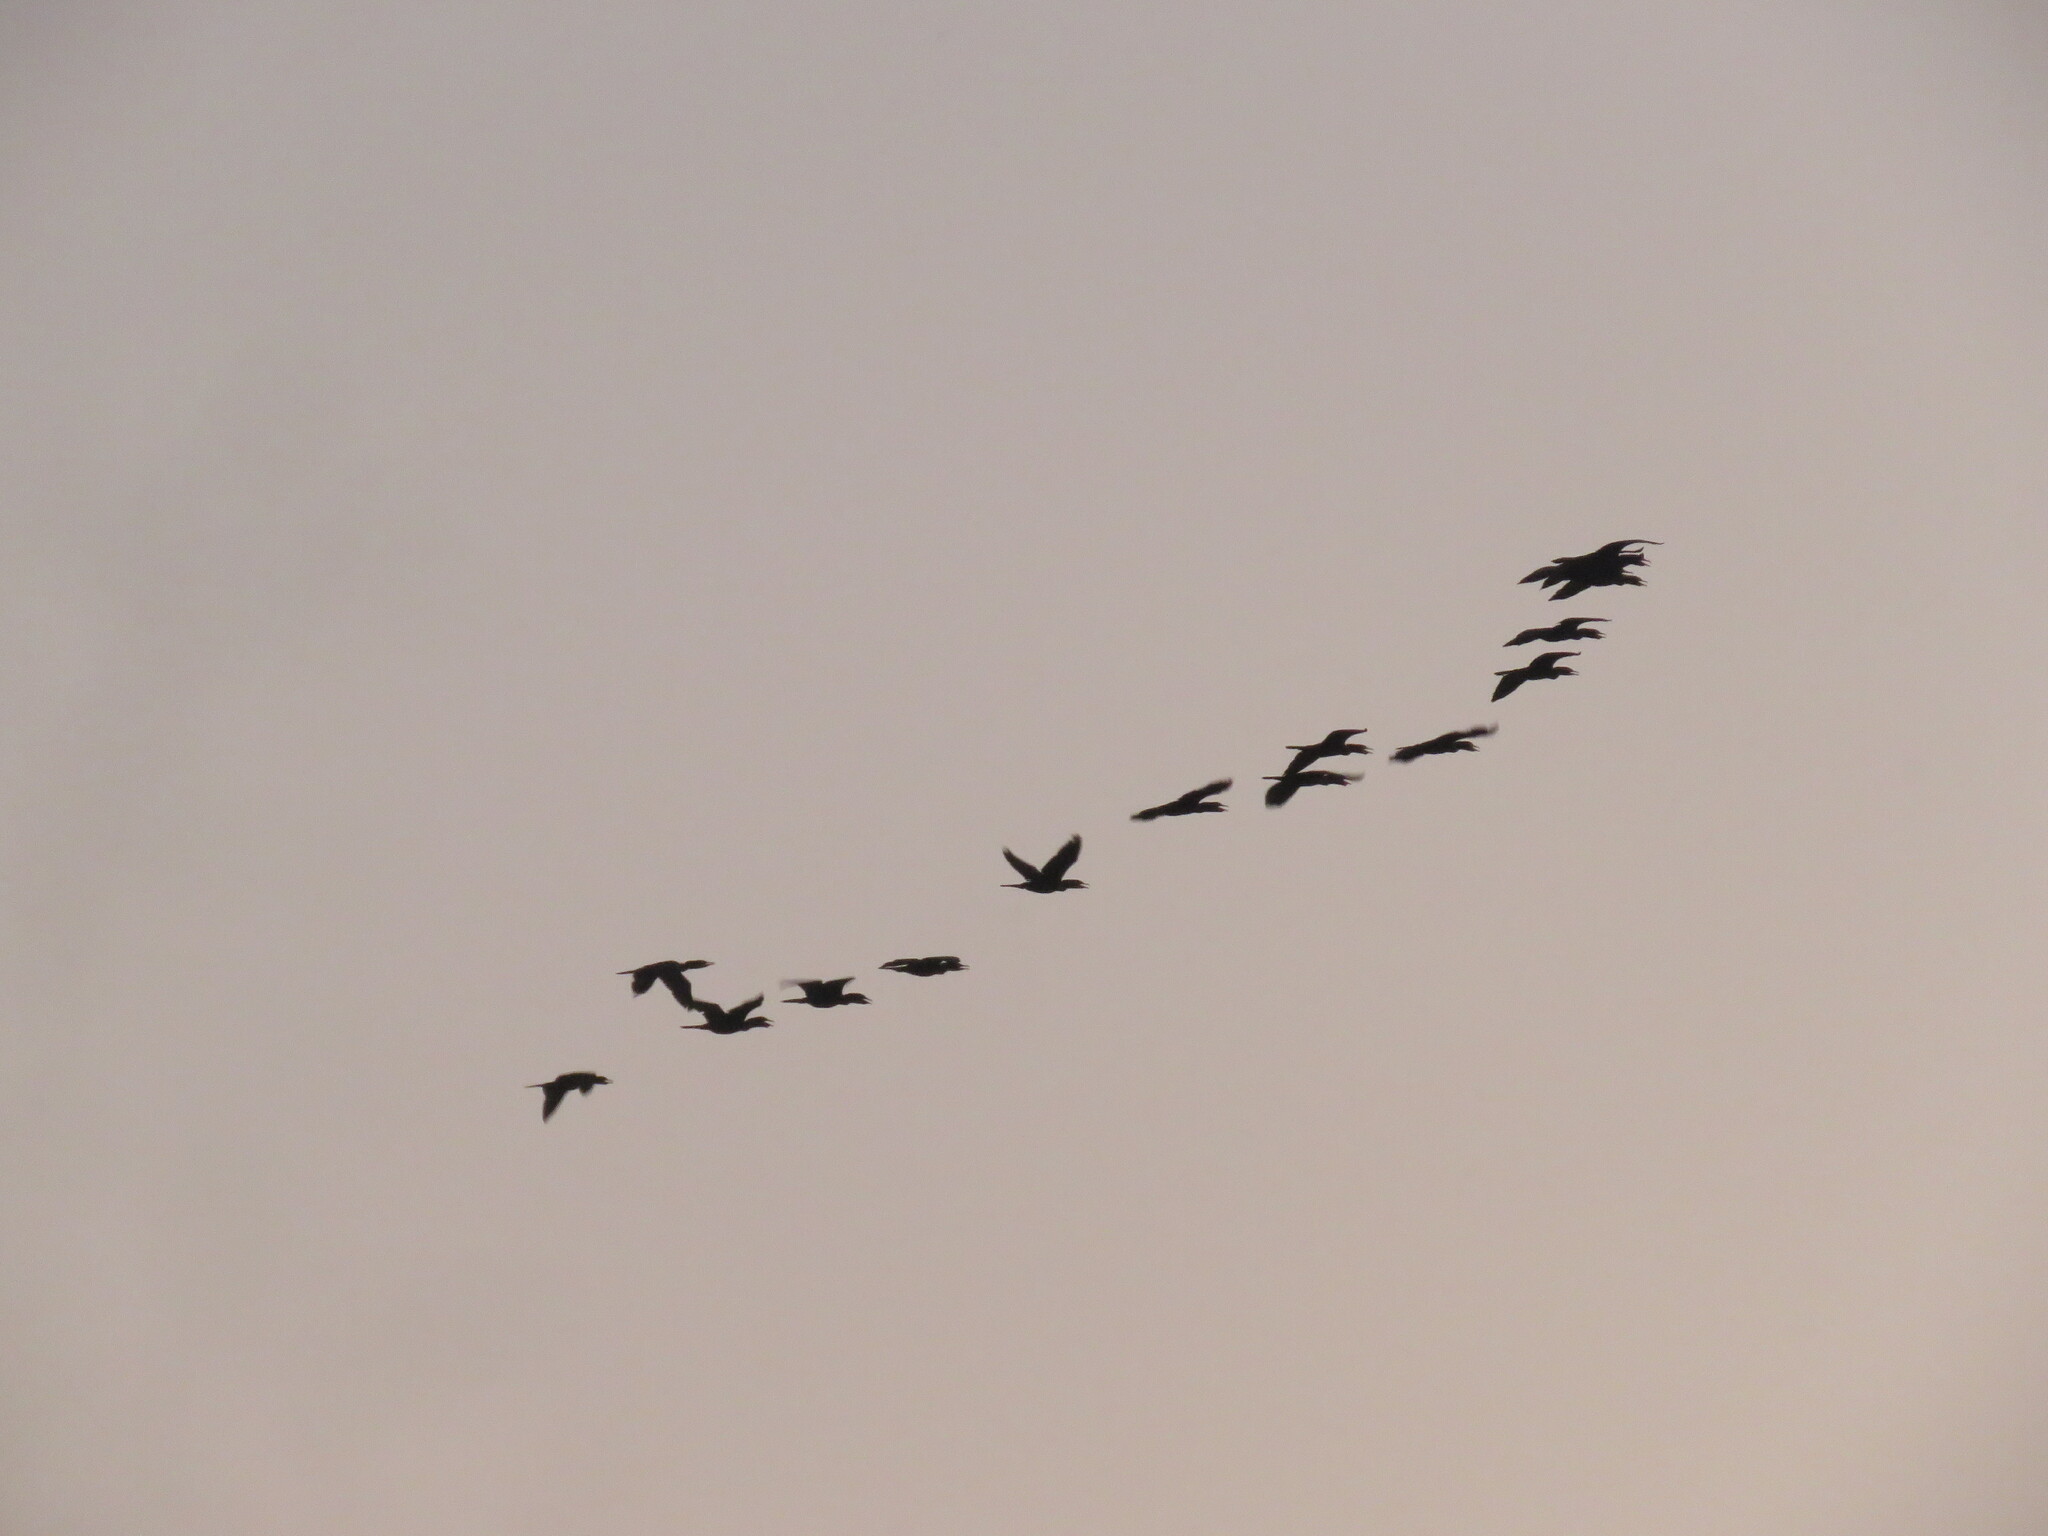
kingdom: Animalia
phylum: Chordata
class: Aves
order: Suliformes
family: Phalacrocoracidae
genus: Phalacrocorax
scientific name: Phalacrocorax brasilianus
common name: Neotropic cormorant
